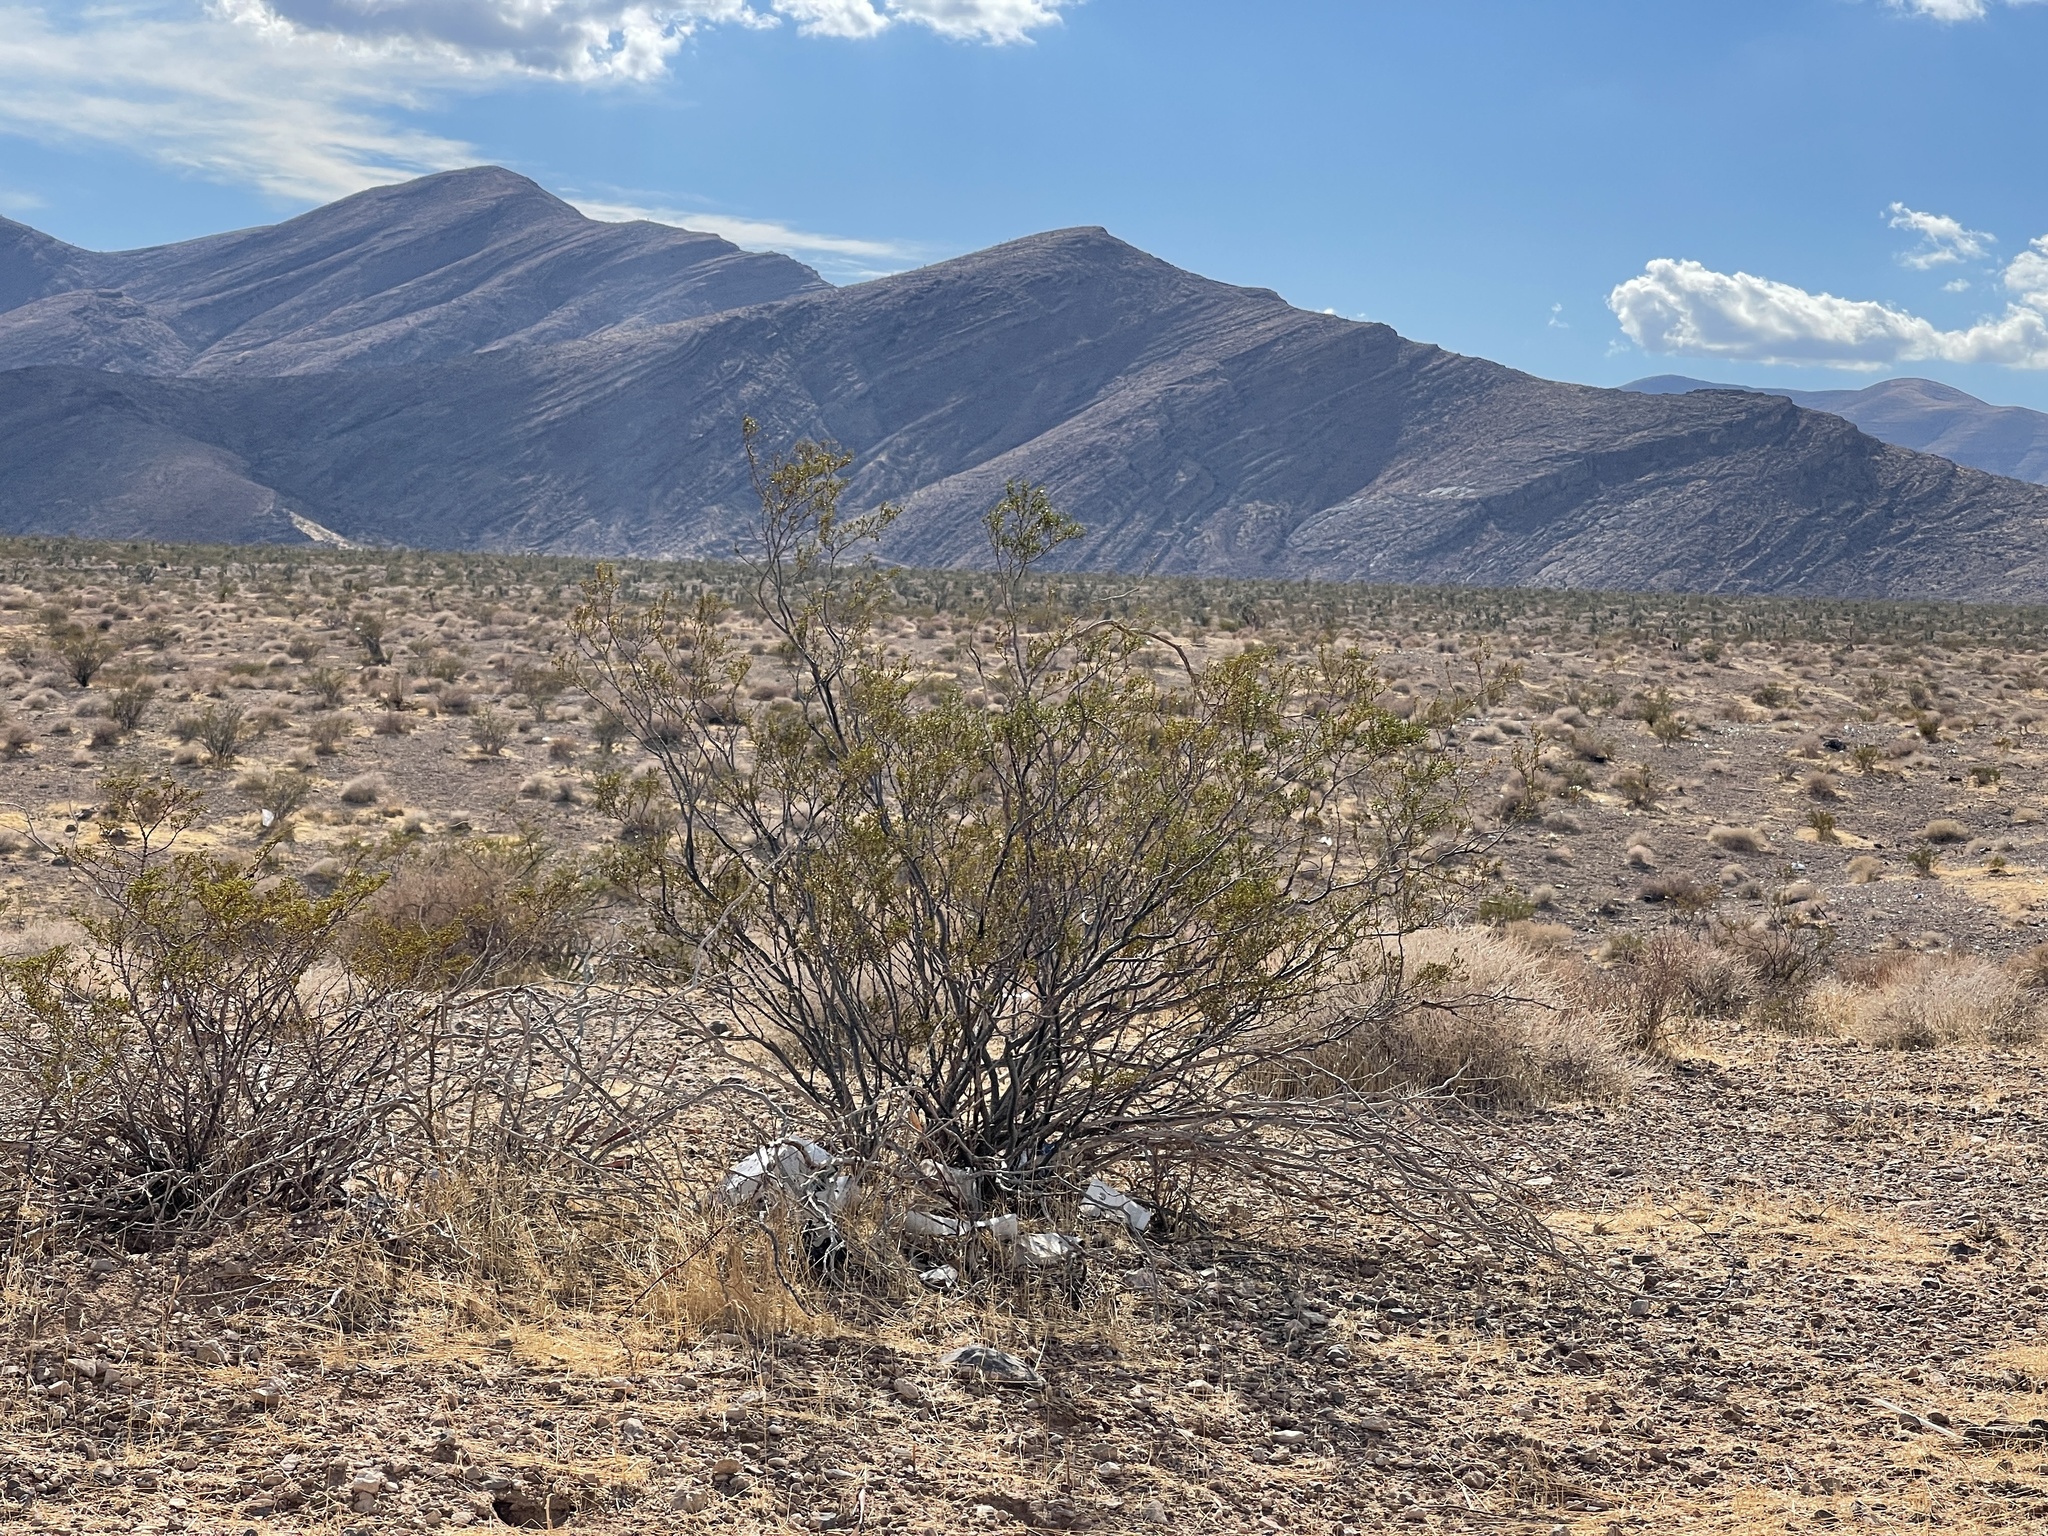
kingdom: Plantae
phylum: Tracheophyta
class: Magnoliopsida
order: Zygophyllales
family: Zygophyllaceae
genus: Larrea
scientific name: Larrea tridentata
